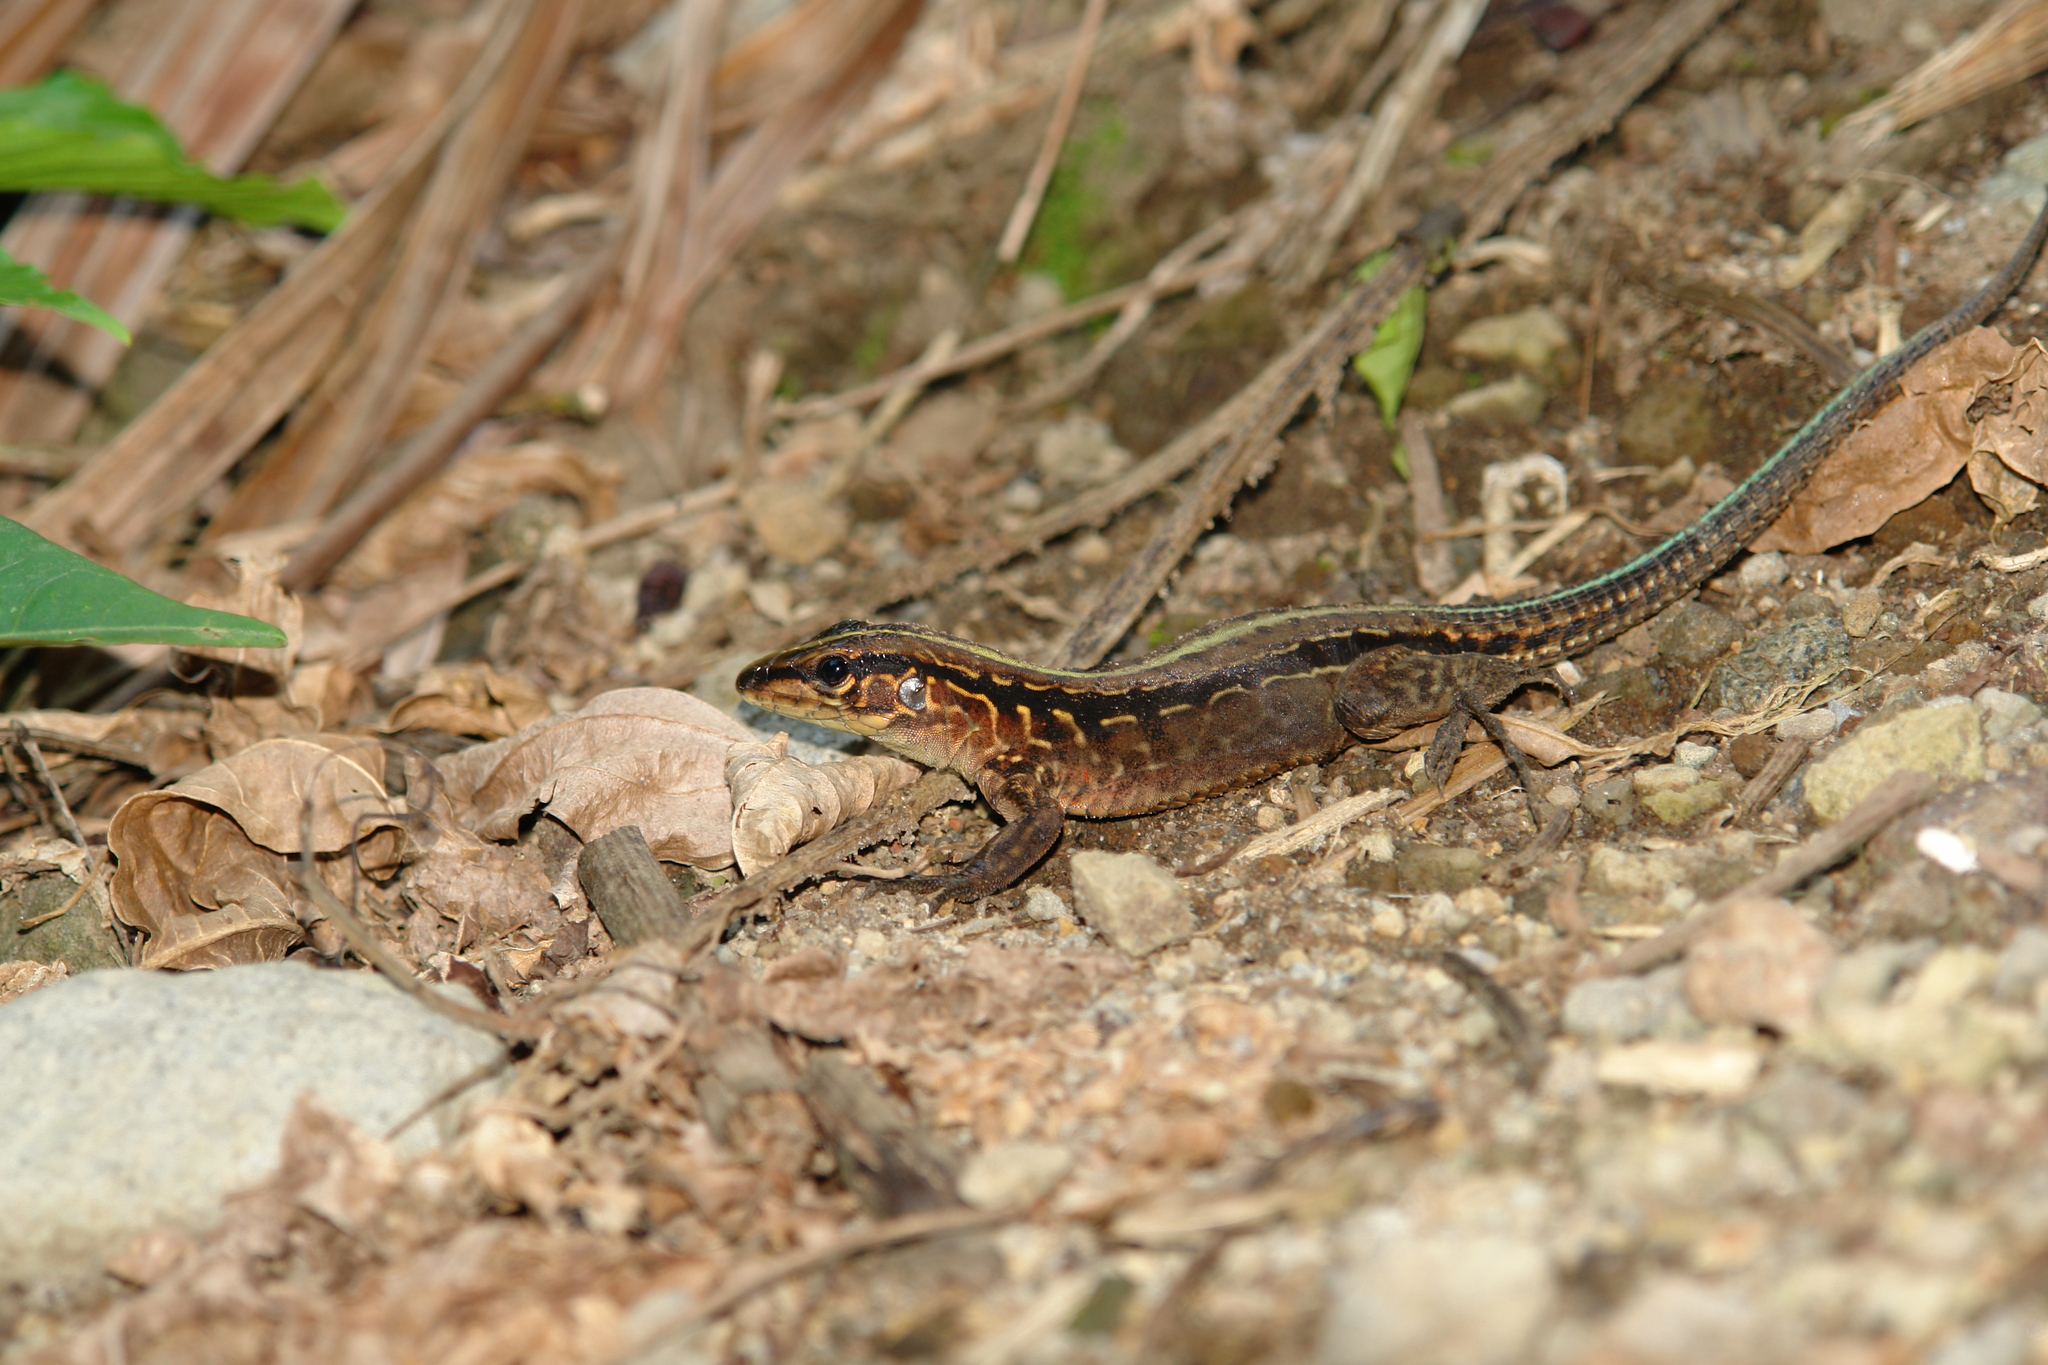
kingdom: Animalia
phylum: Chordata
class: Squamata
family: Teiidae
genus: Holcosus
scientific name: Holcosus festivus
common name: Middle american ameiva
